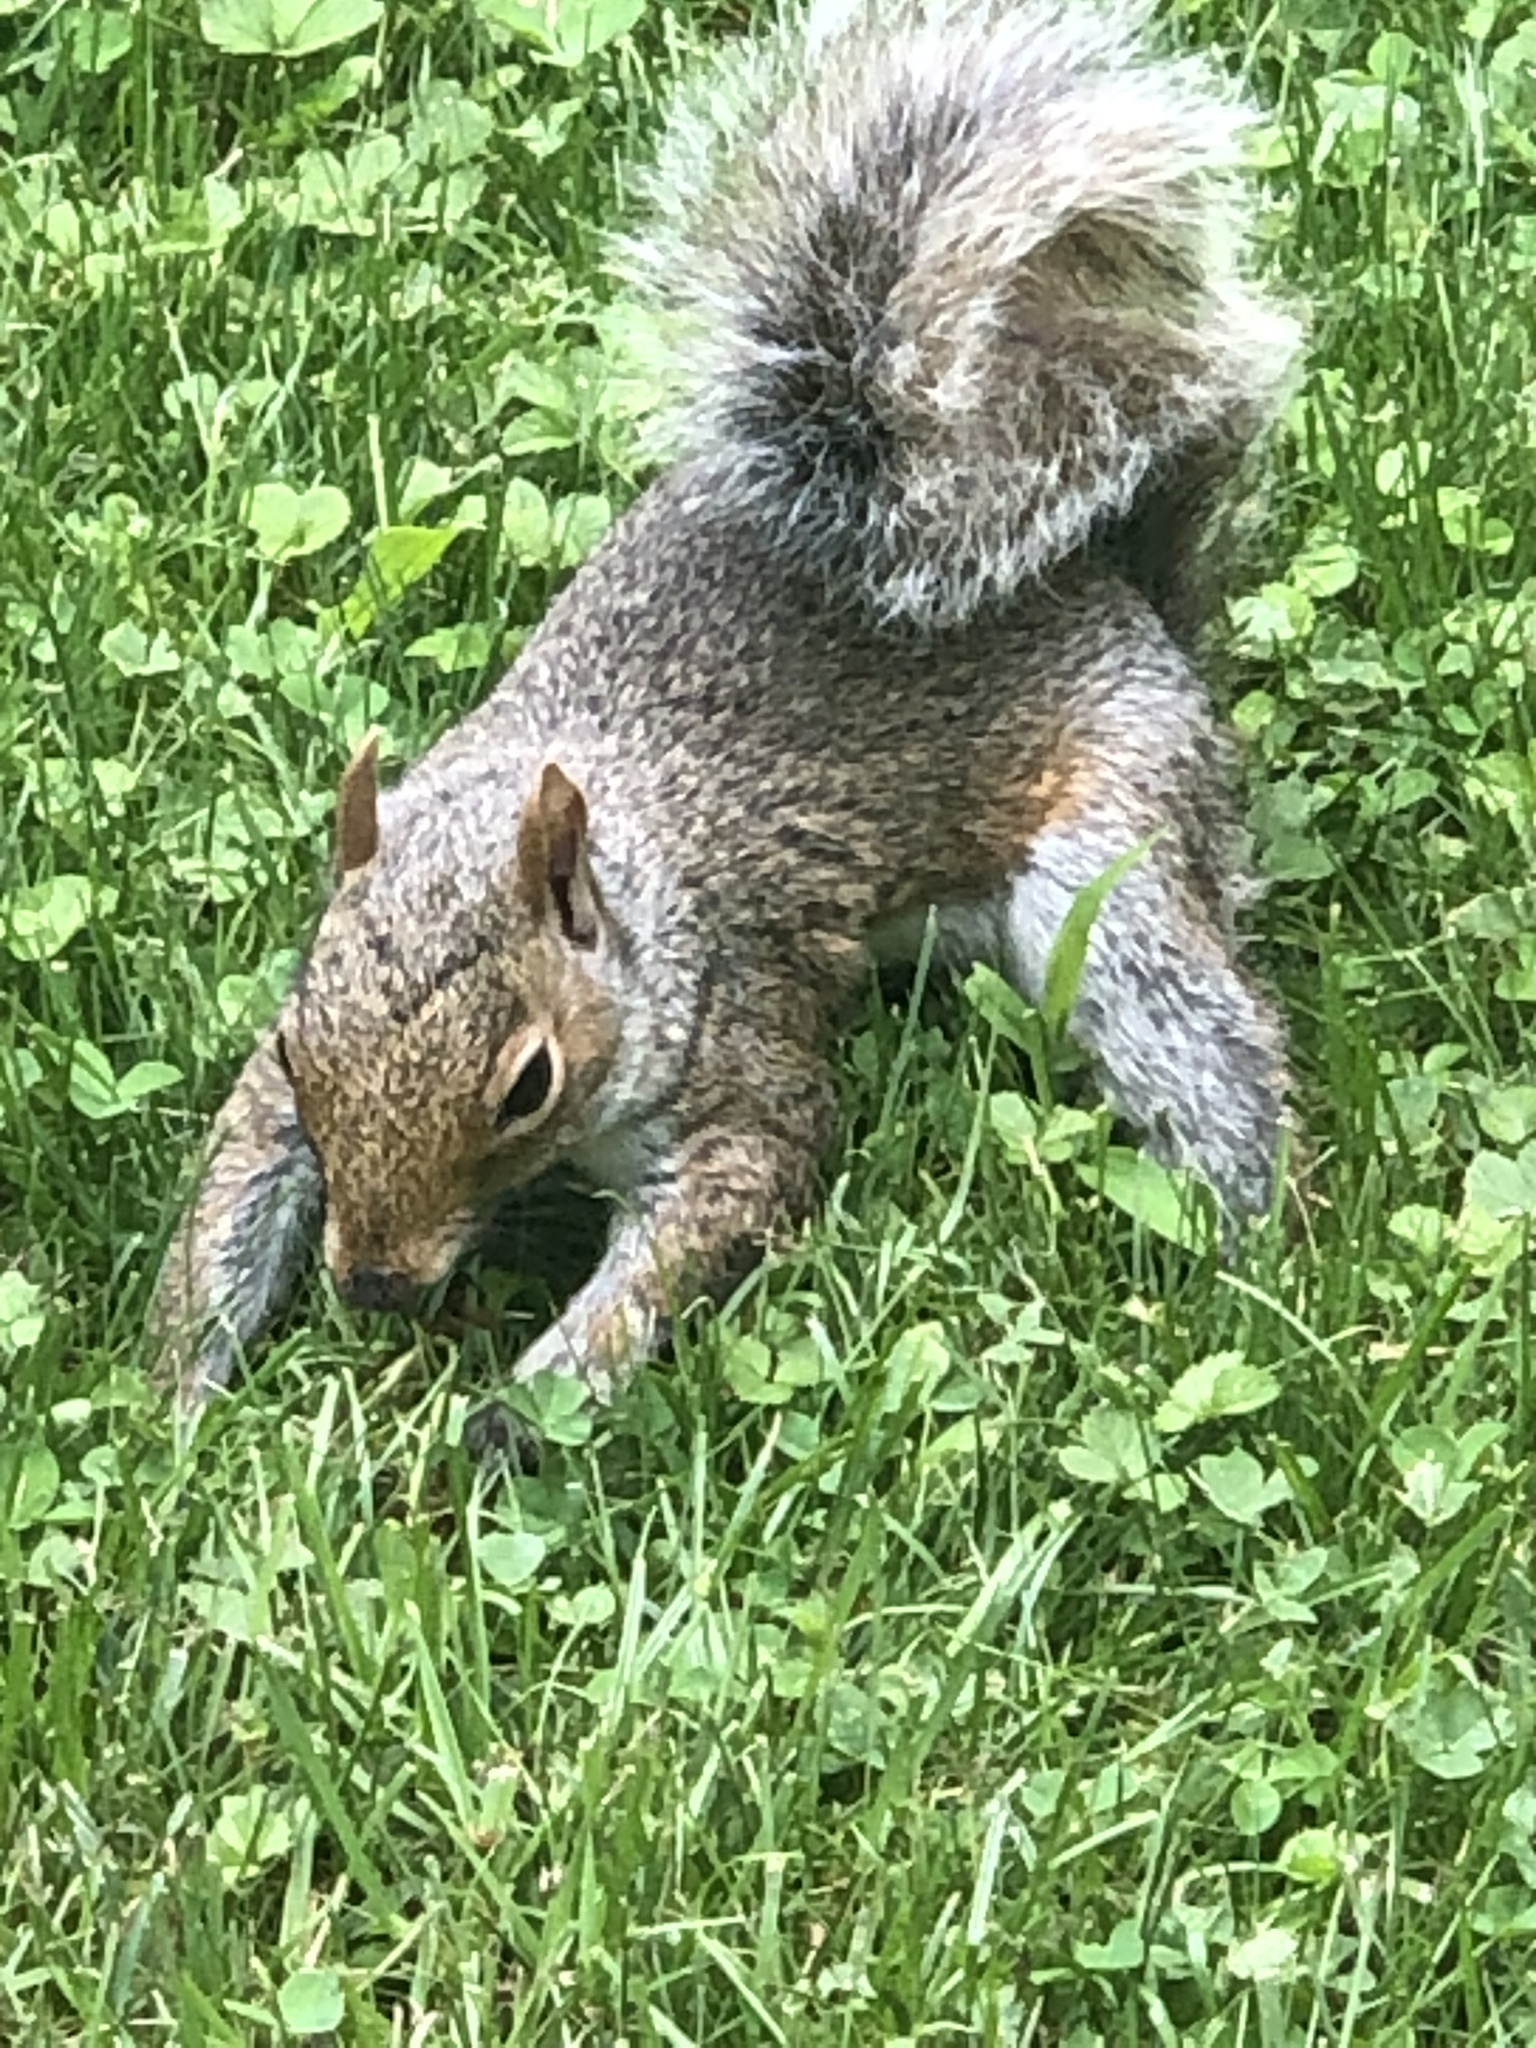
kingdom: Animalia
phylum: Chordata
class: Mammalia
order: Rodentia
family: Sciuridae
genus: Sciurus
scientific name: Sciurus carolinensis
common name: Eastern gray squirrel
